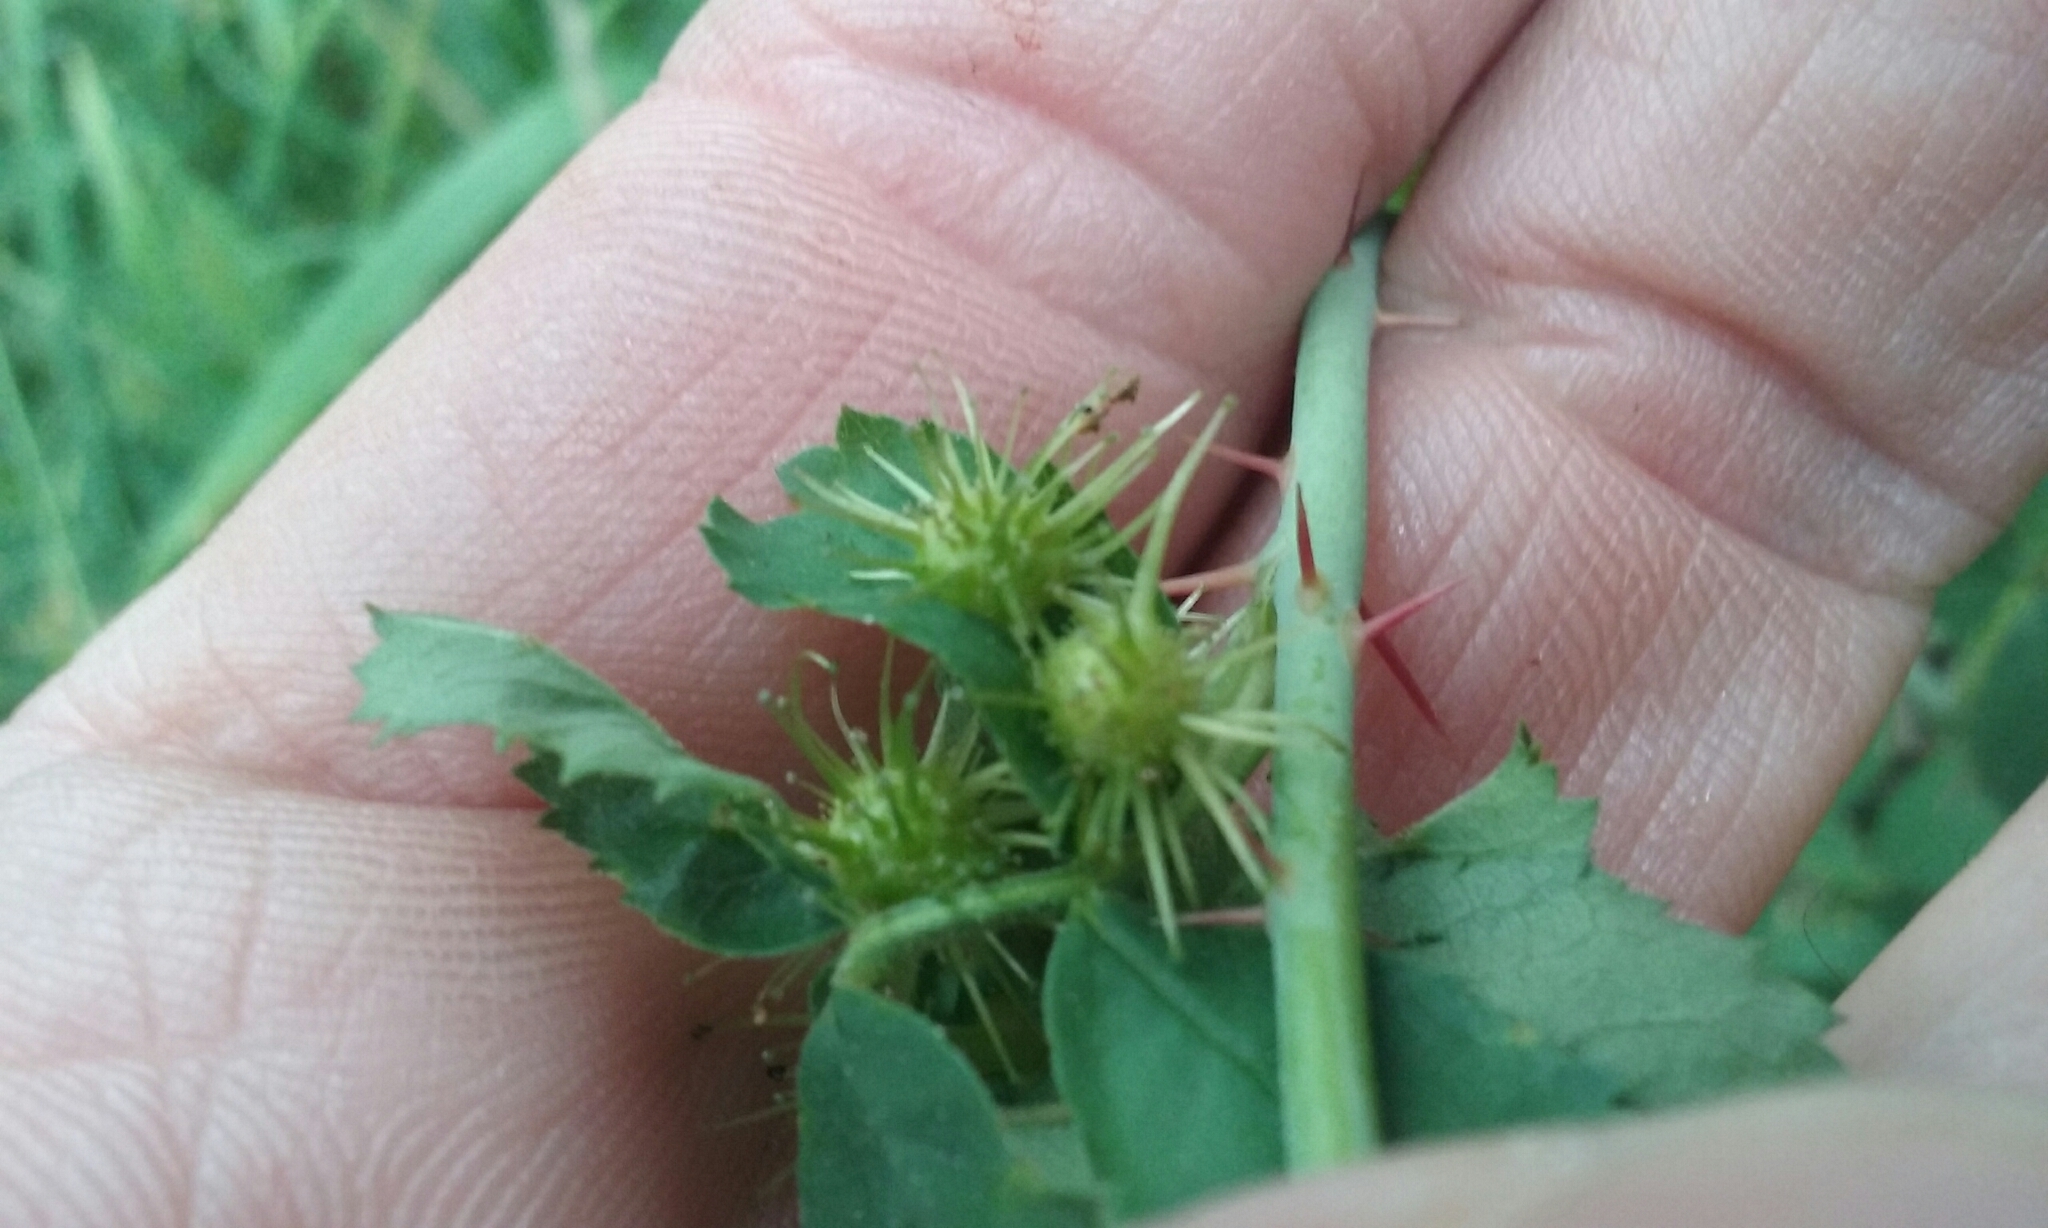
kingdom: Animalia
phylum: Arthropoda
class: Insecta
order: Hymenoptera
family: Cynipidae
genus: Diplolepis
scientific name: Diplolepis bicolor
